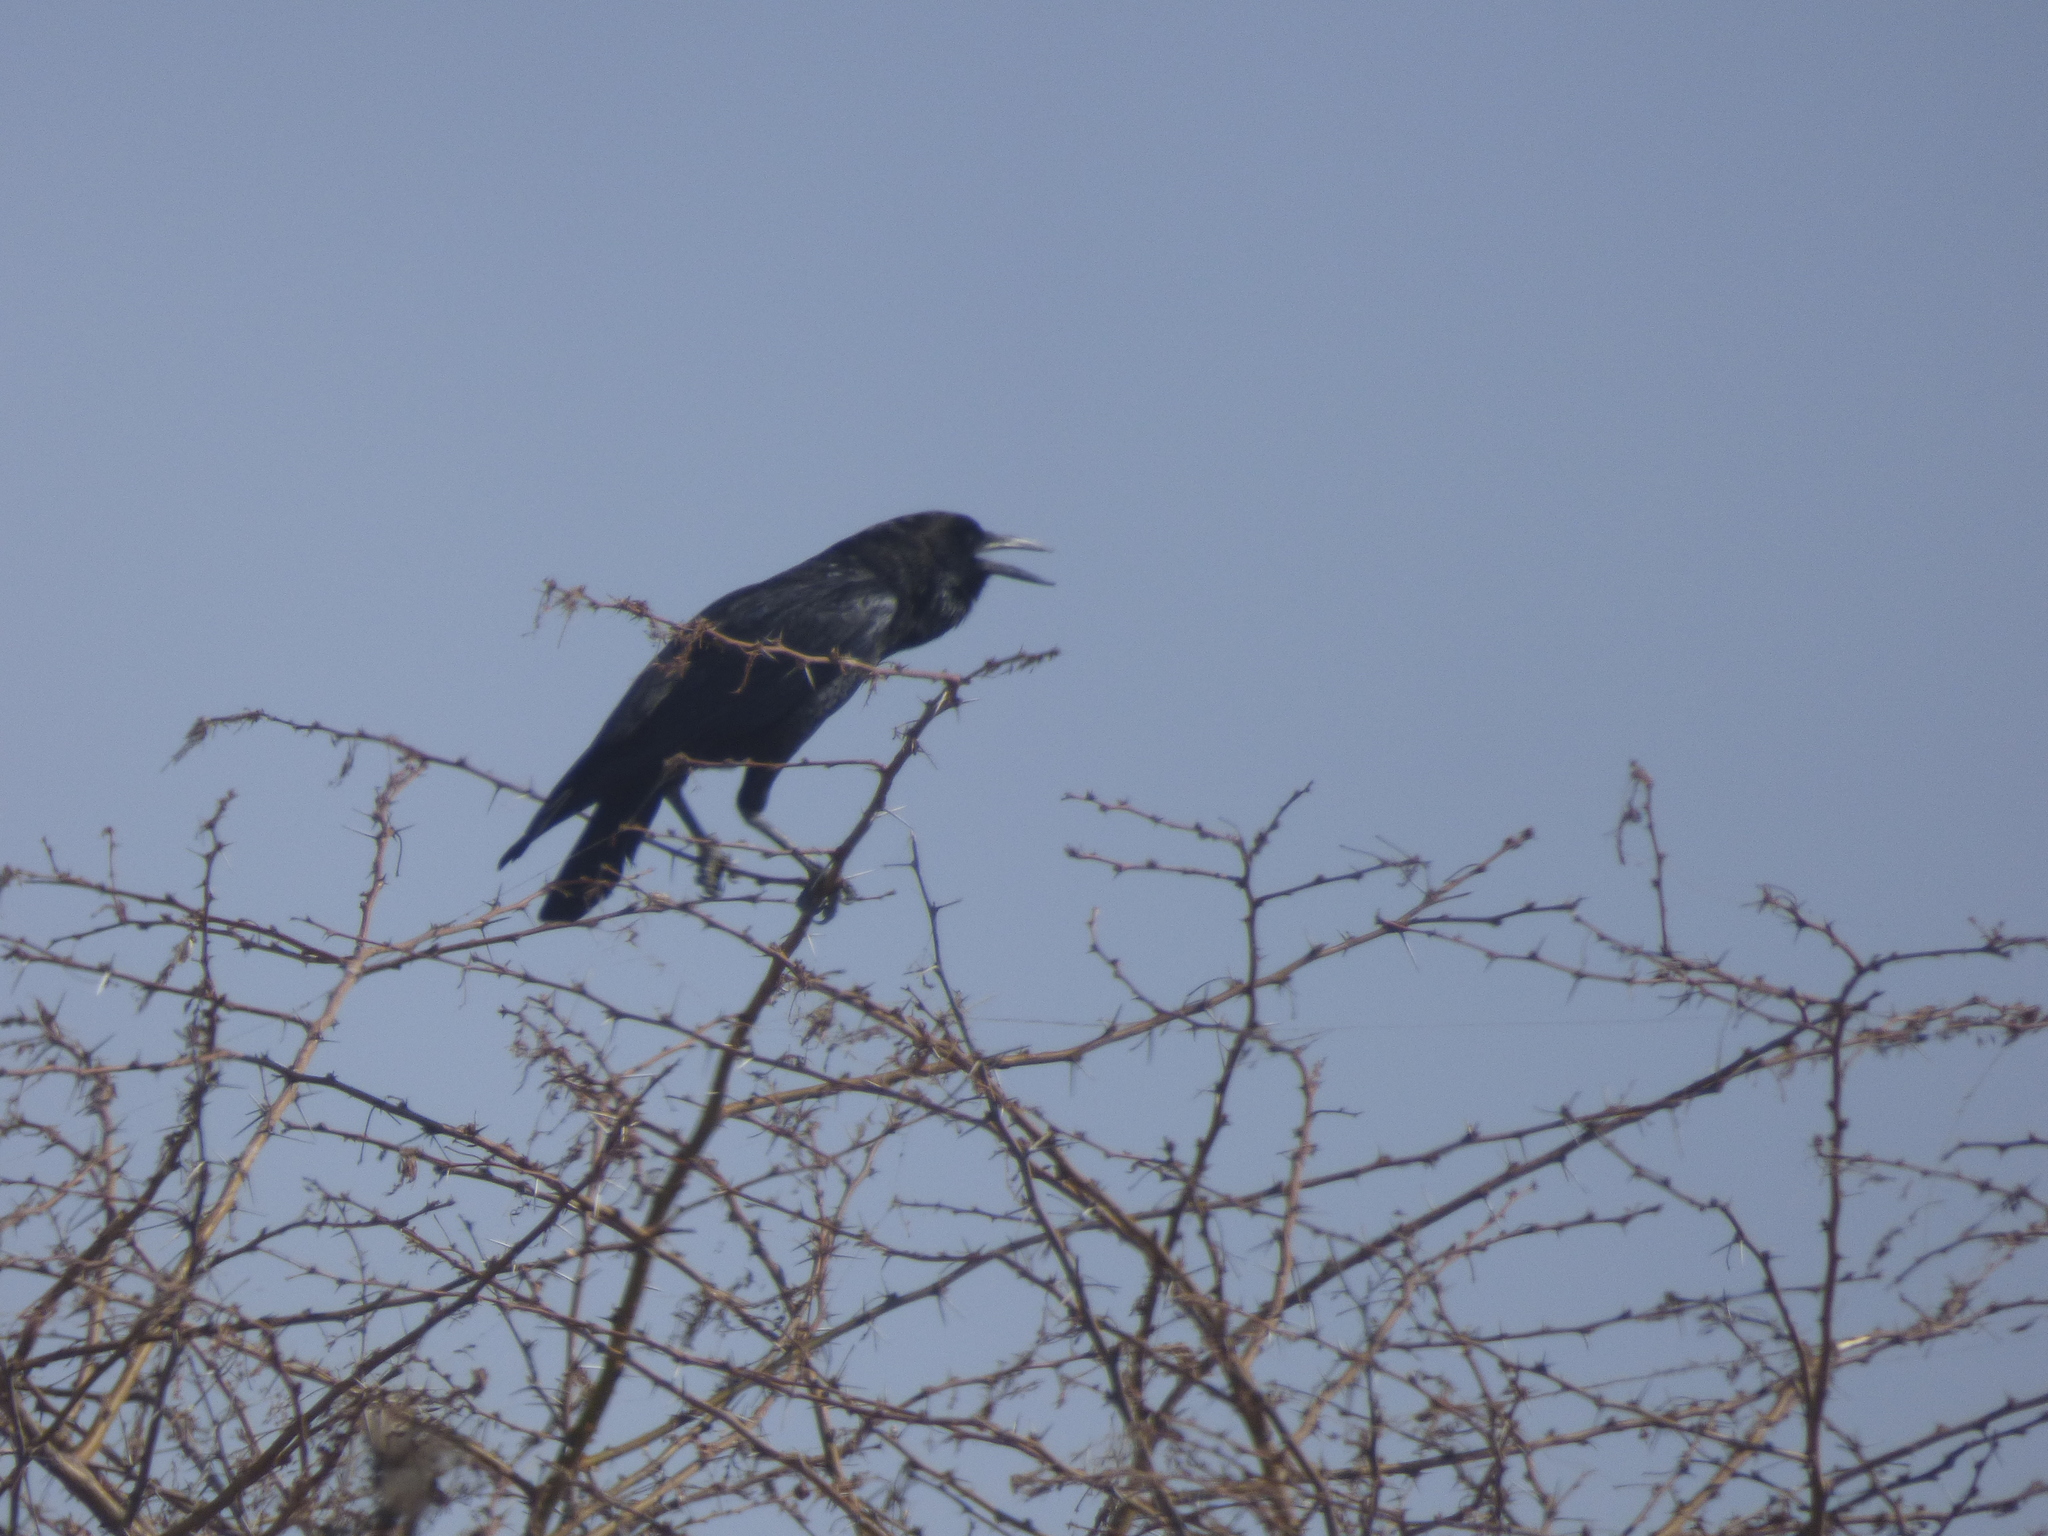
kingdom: Animalia
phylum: Chordata
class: Aves
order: Passeriformes
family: Corvidae
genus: Corvus
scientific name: Corvus capensis
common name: Cape crow
